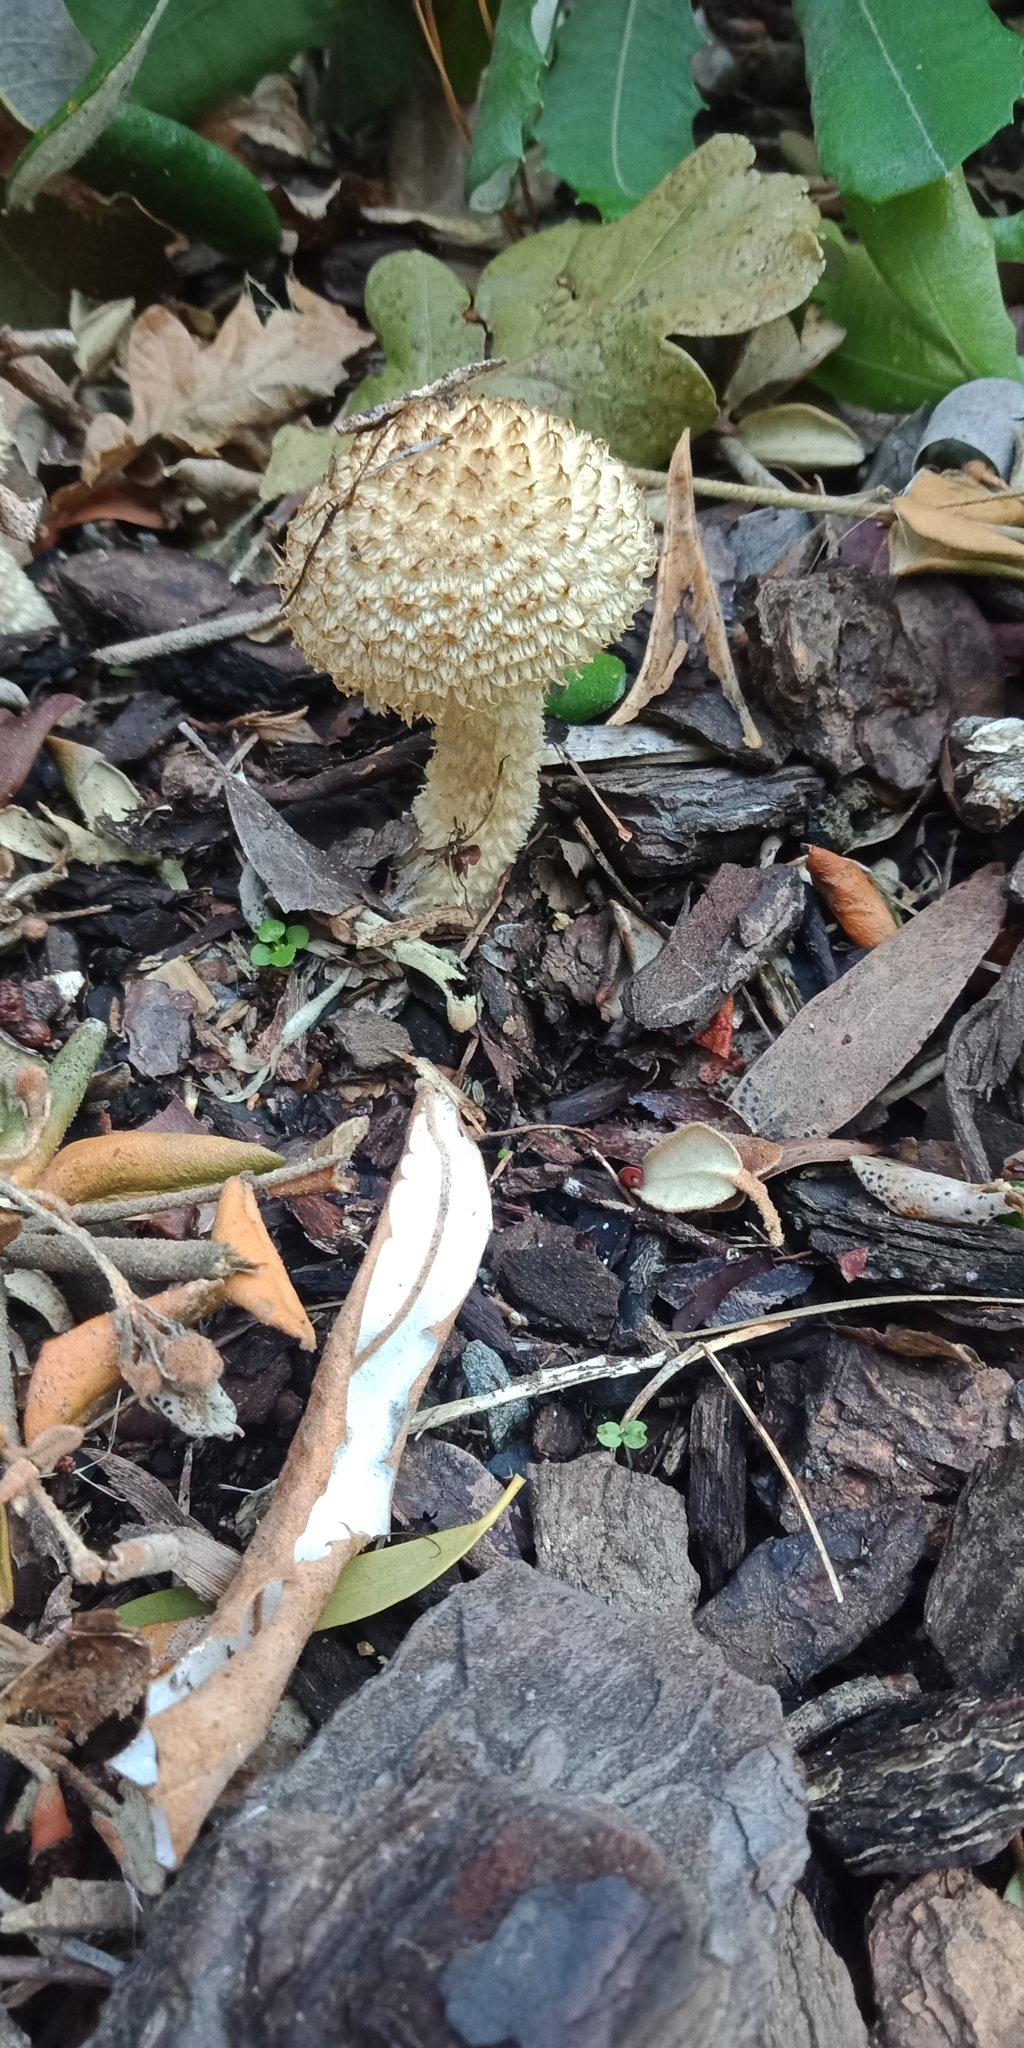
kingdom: Fungi
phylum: Basidiomycota
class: Agaricomycetes
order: Agaricales
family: Psathyrellaceae
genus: Psathyrella
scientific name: Psathyrella asperospora
